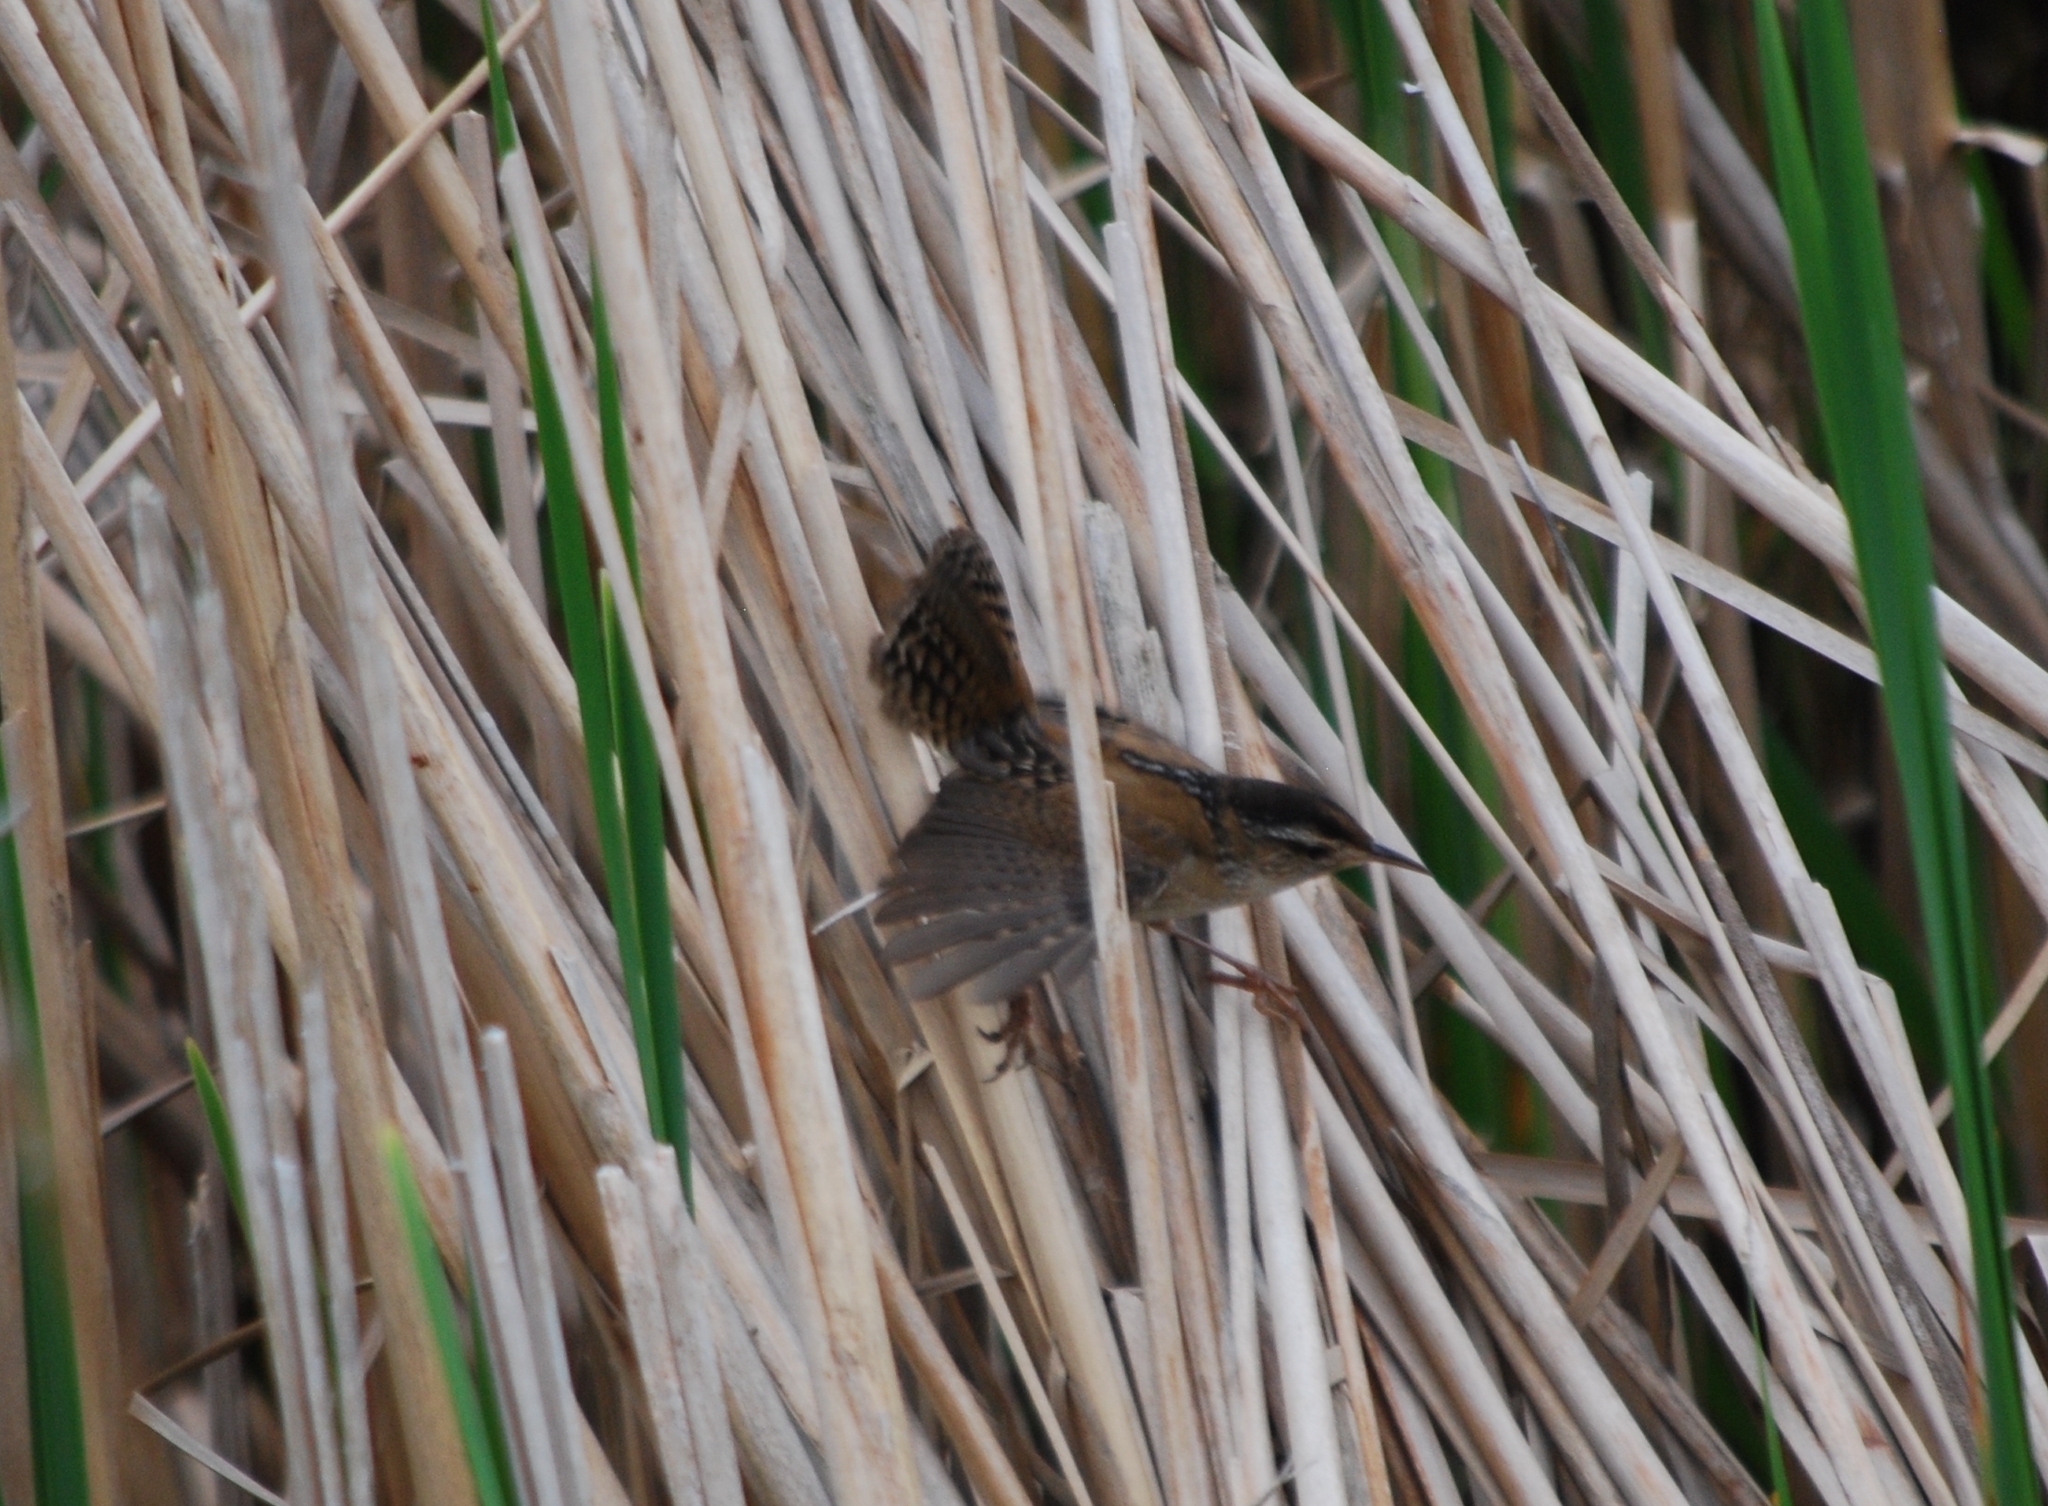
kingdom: Animalia
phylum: Chordata
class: Aves
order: Passeriformes
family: Troglodytidae
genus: Cistothorus
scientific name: Cistothorus palustris
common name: Marsh wren
